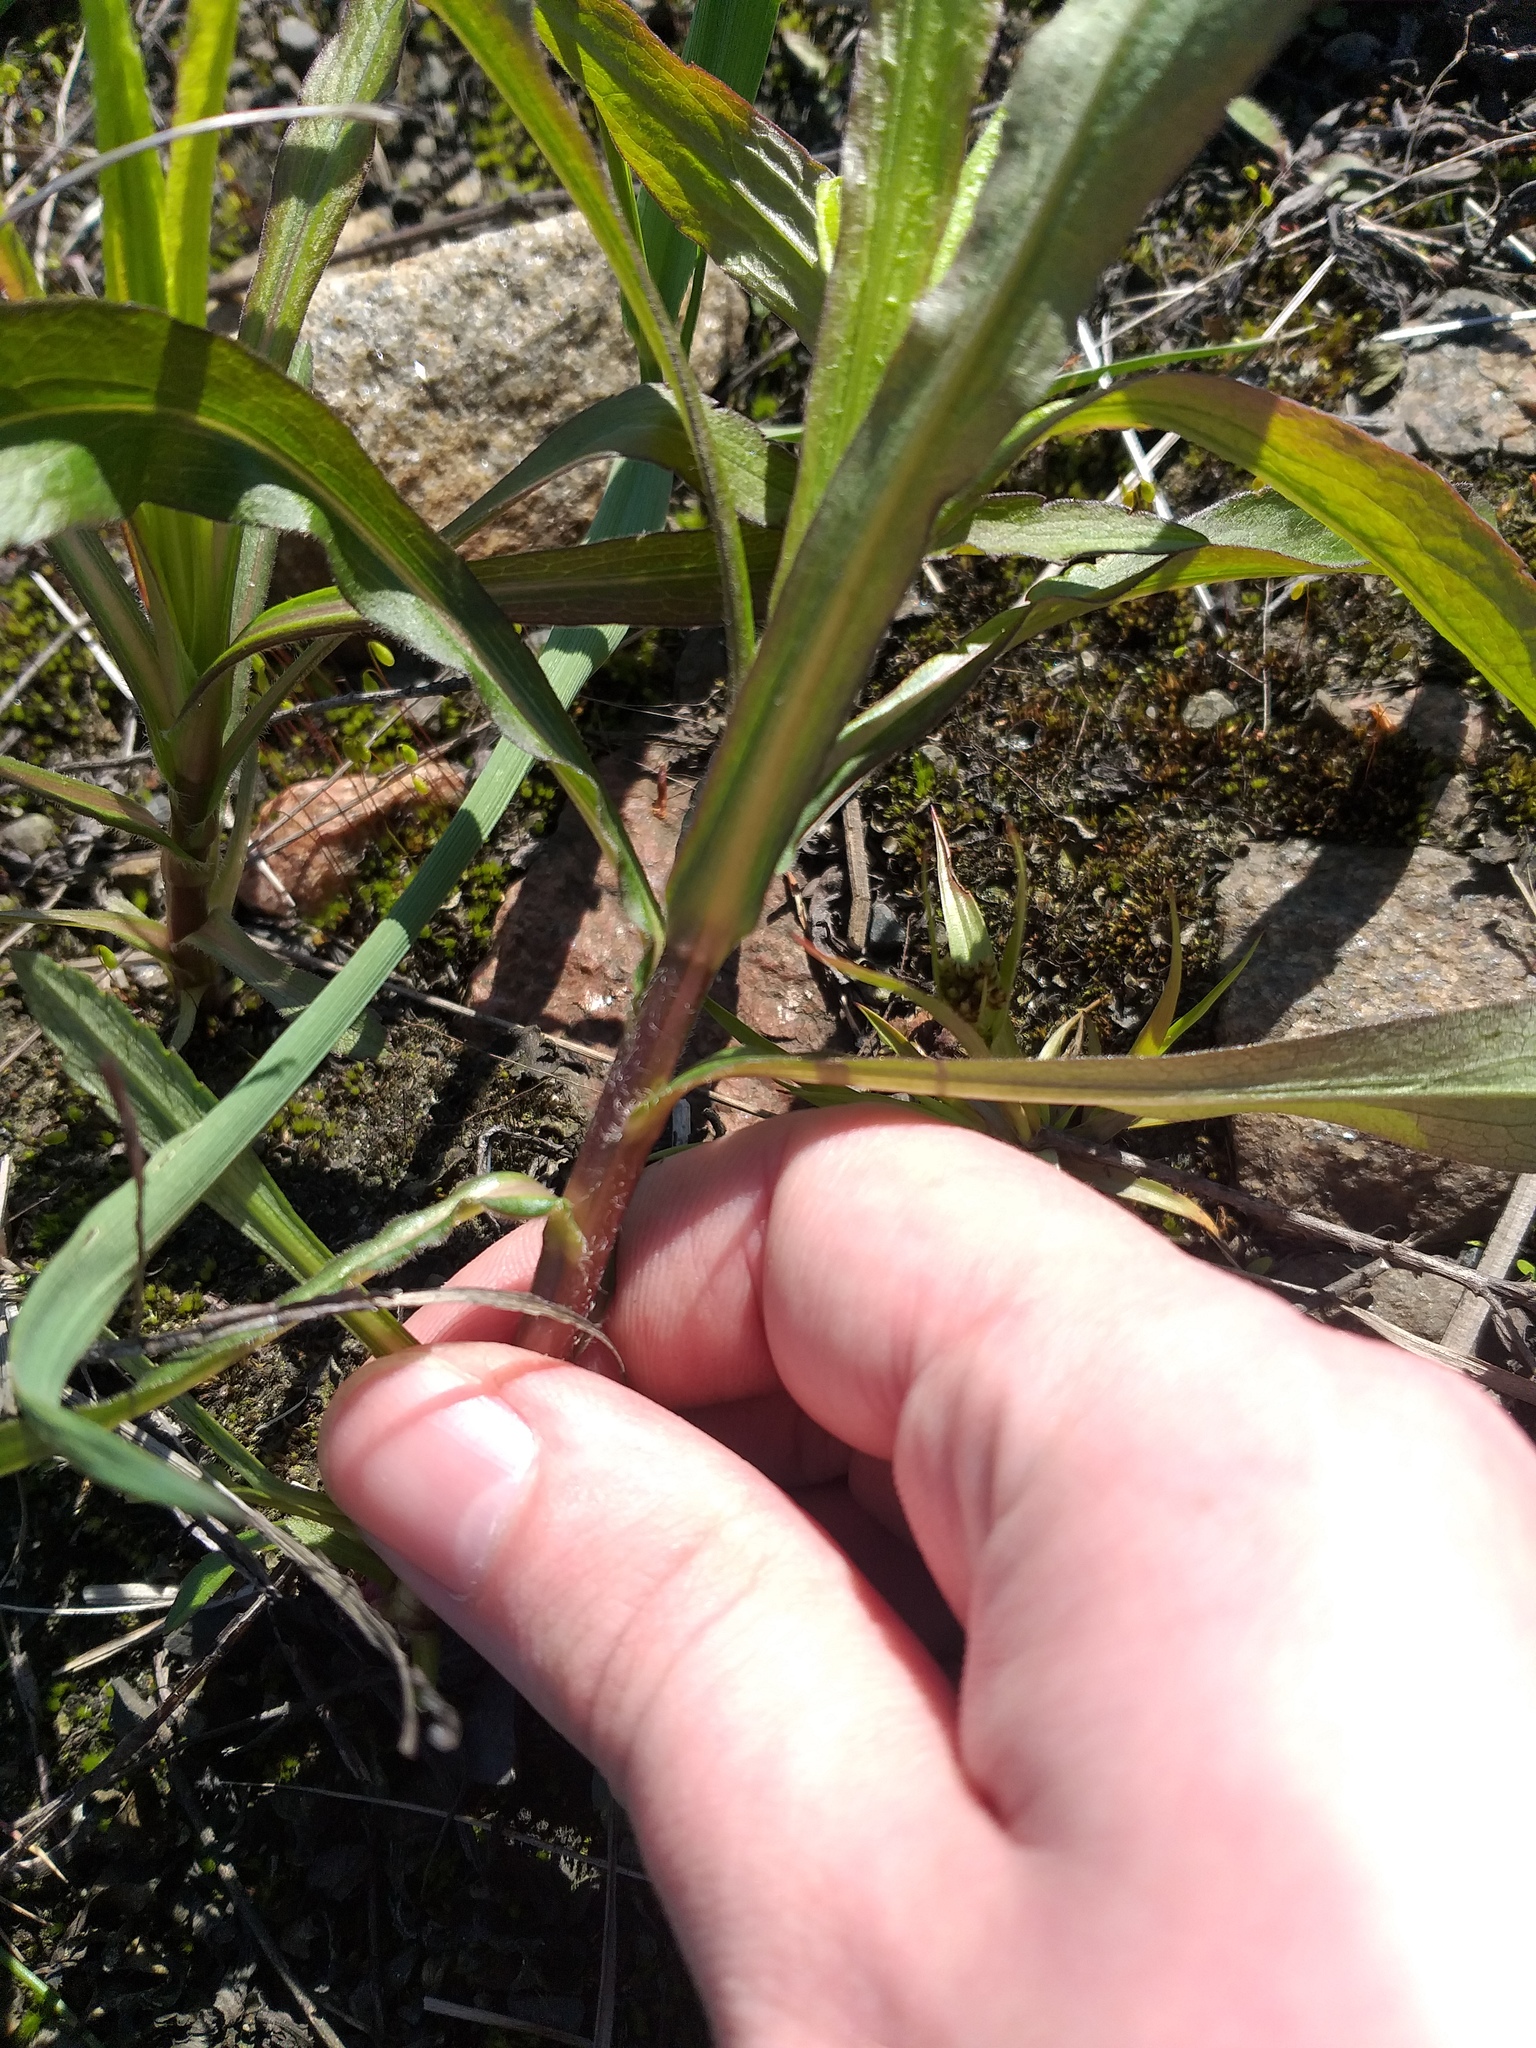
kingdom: Plantae
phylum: Tracheophyta
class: Magnoliopsida
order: Asterales
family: Asteraceae
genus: Solidago
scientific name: Solidago gigantea
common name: Giant goldenrod
